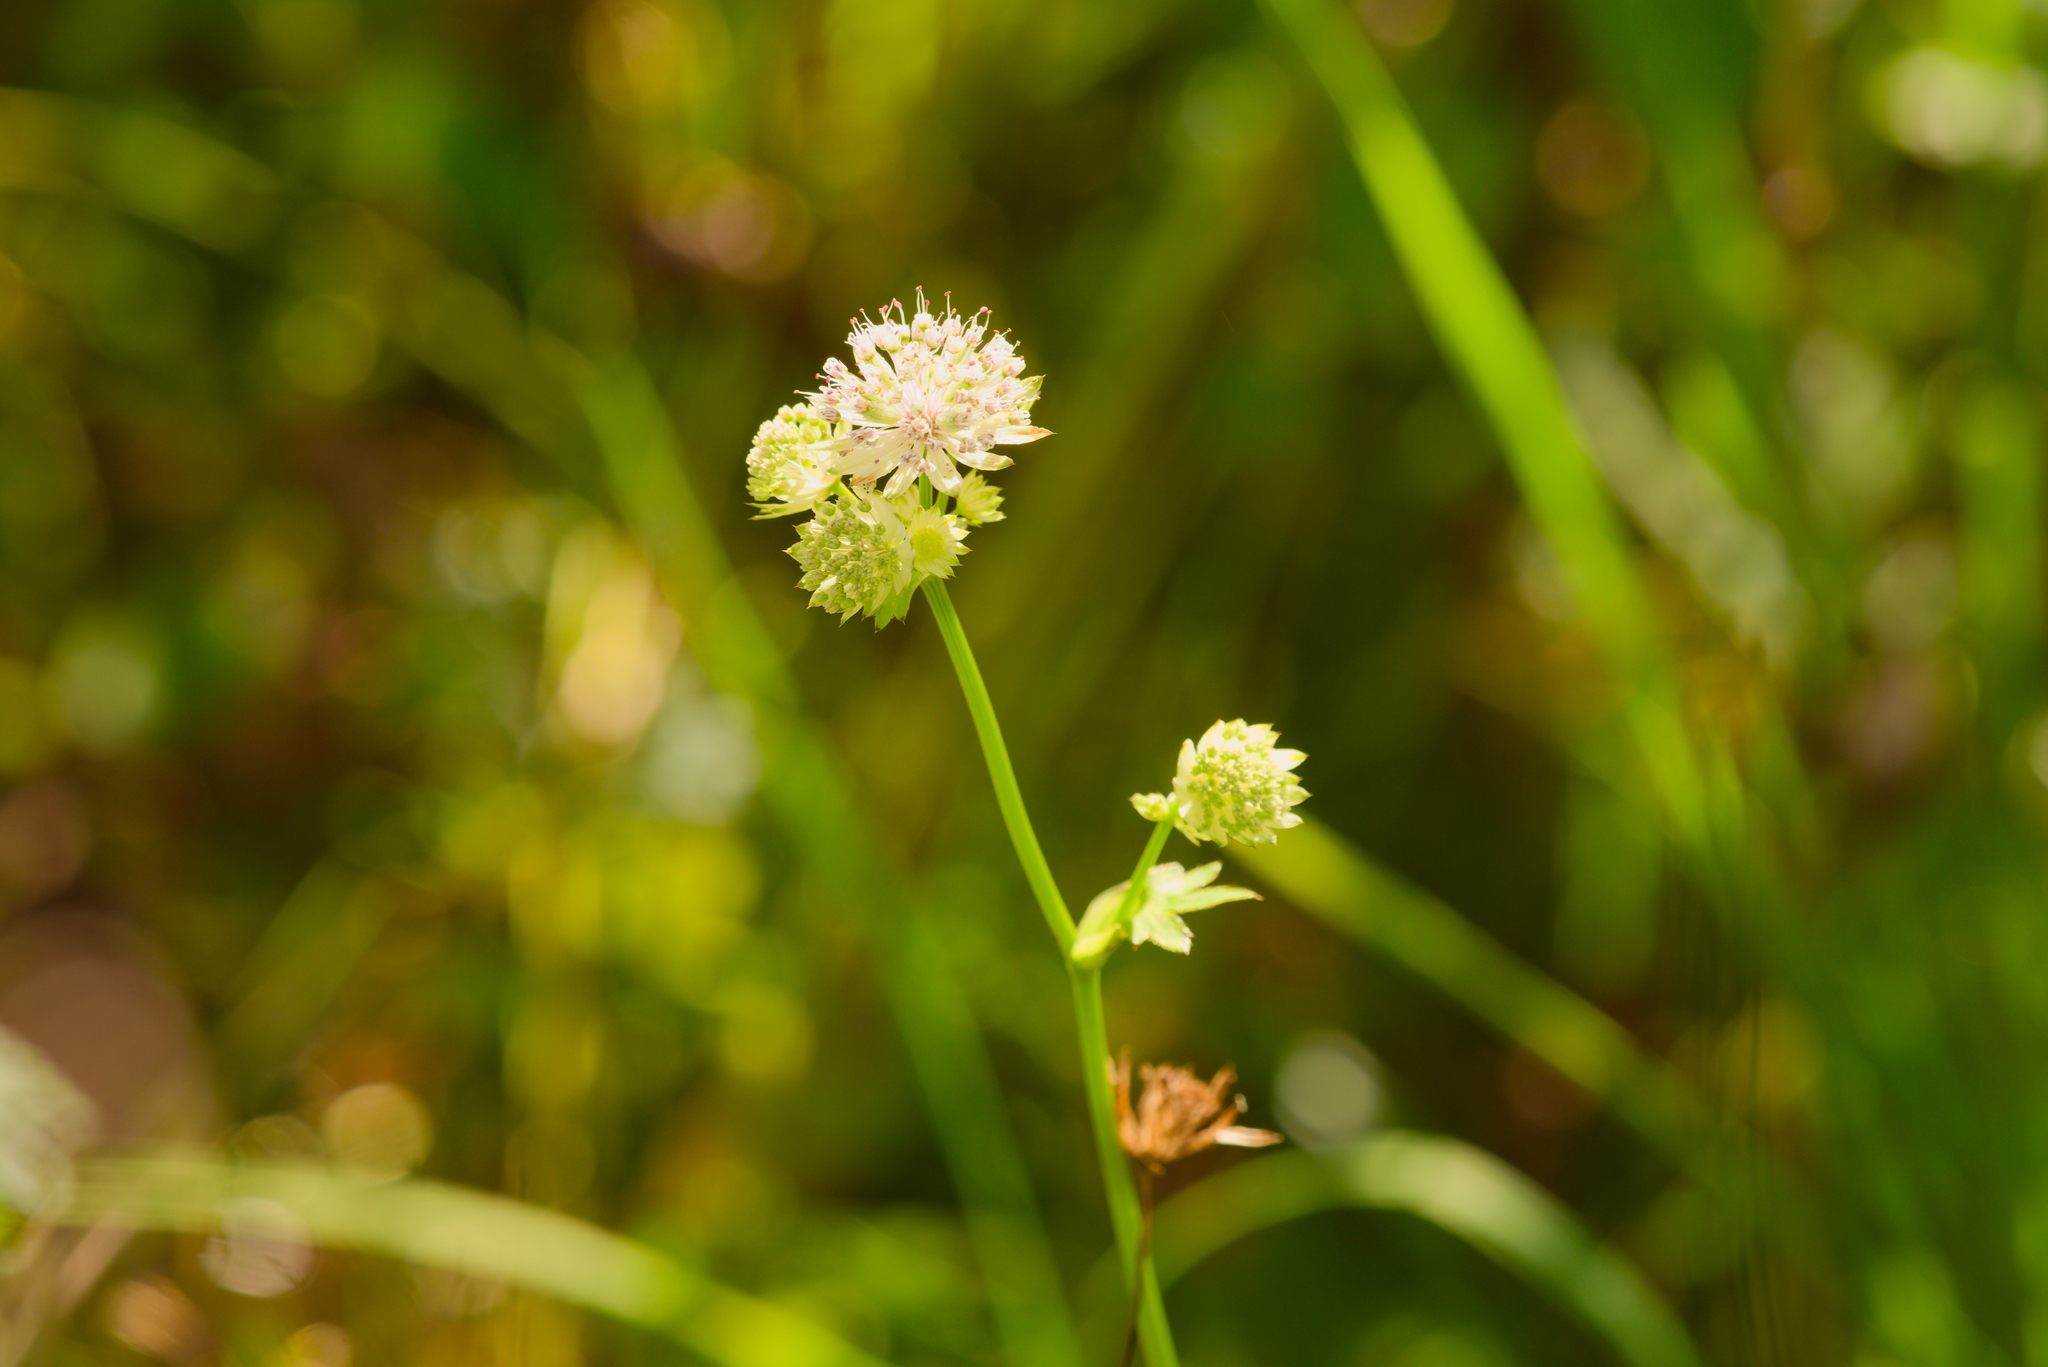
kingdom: Plantae
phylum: Tracheophyta
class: Magnoliopsida
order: Apiales
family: Apiaceae
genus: Astrantia
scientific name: Astrantia major
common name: Greater masterwort
